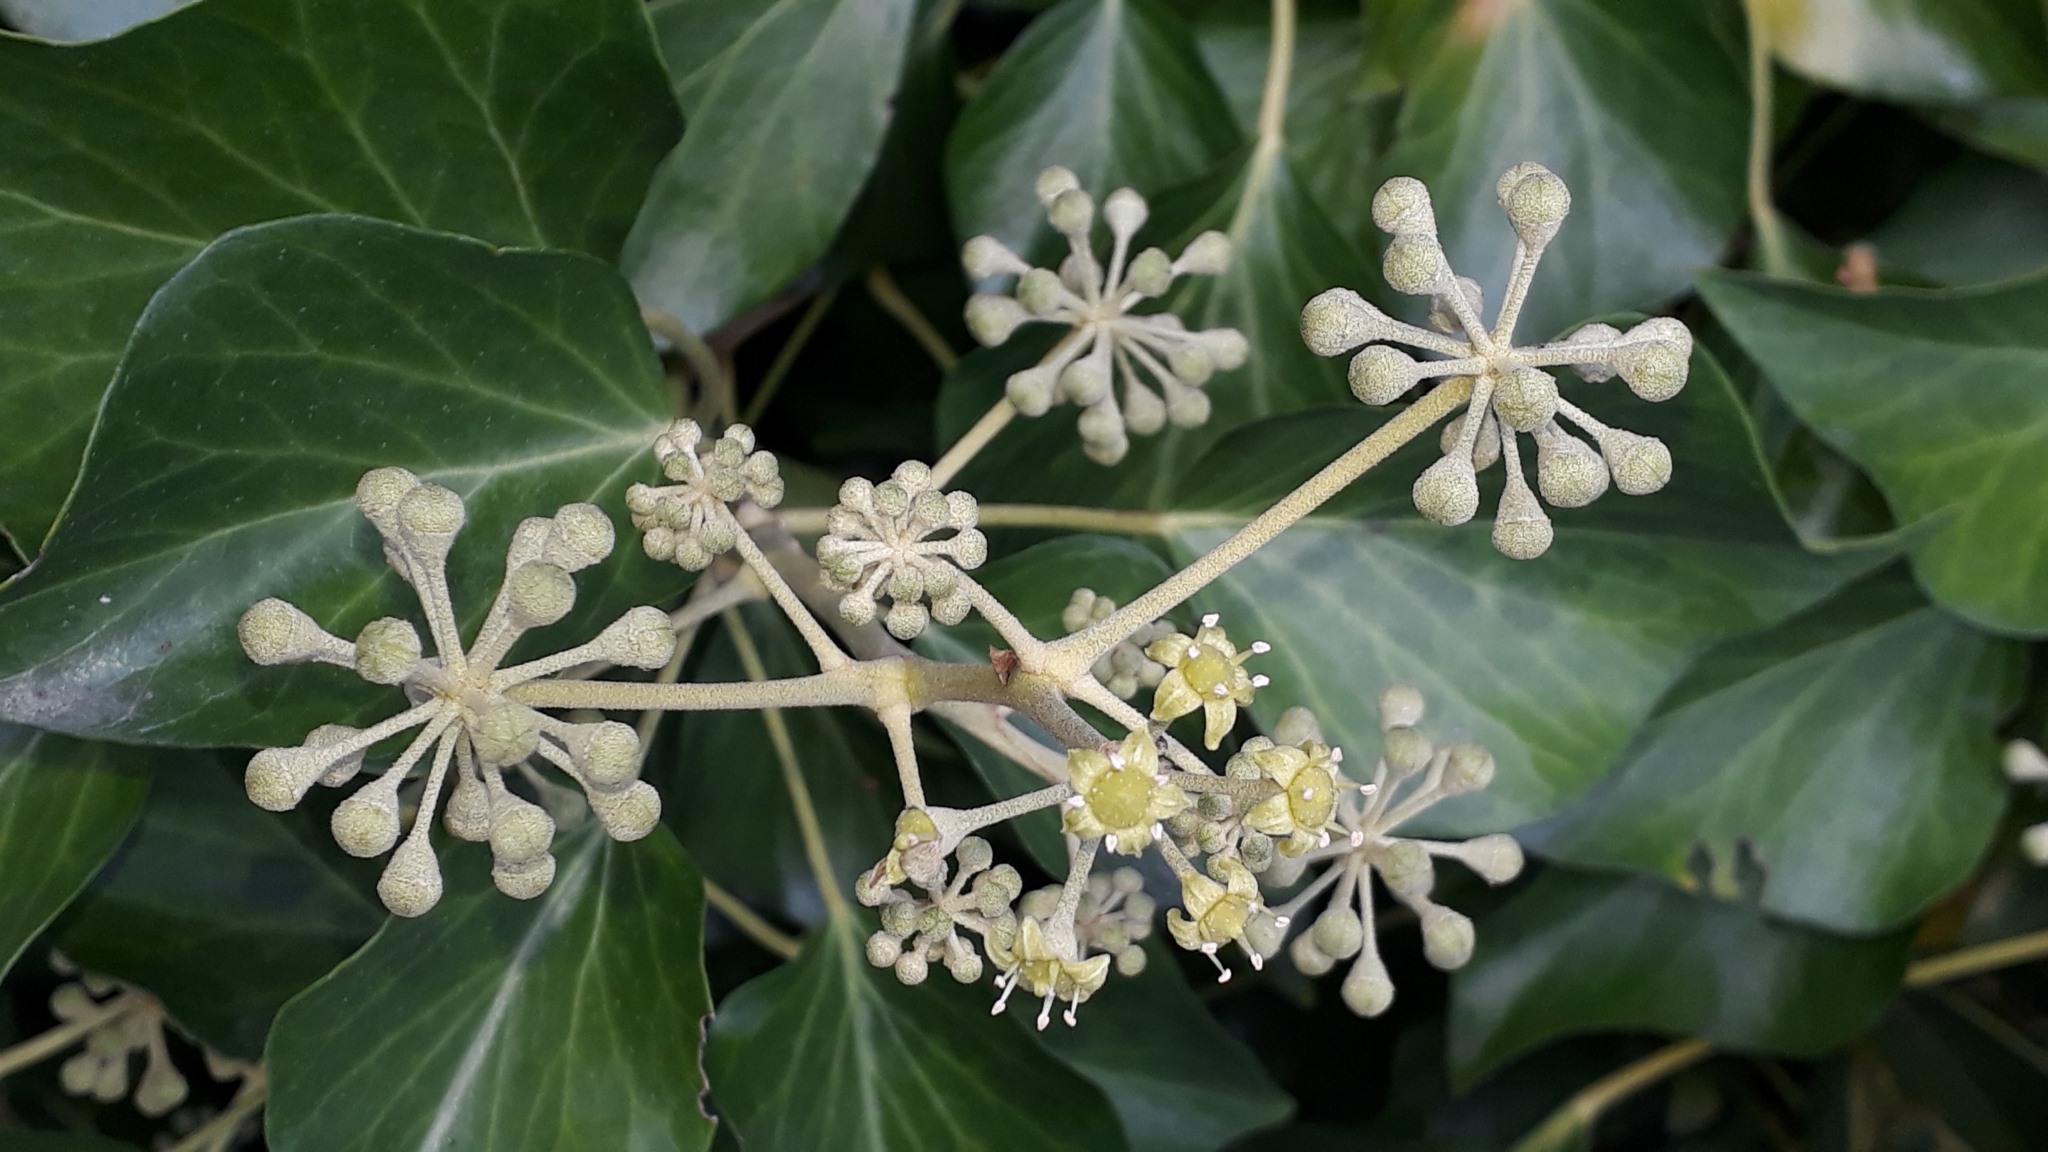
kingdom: Plantae
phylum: Tracheophyta
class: Magnoliopsida
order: Apiales
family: Araliaceae
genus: Hedera
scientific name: Hedera helix
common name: Ivy
